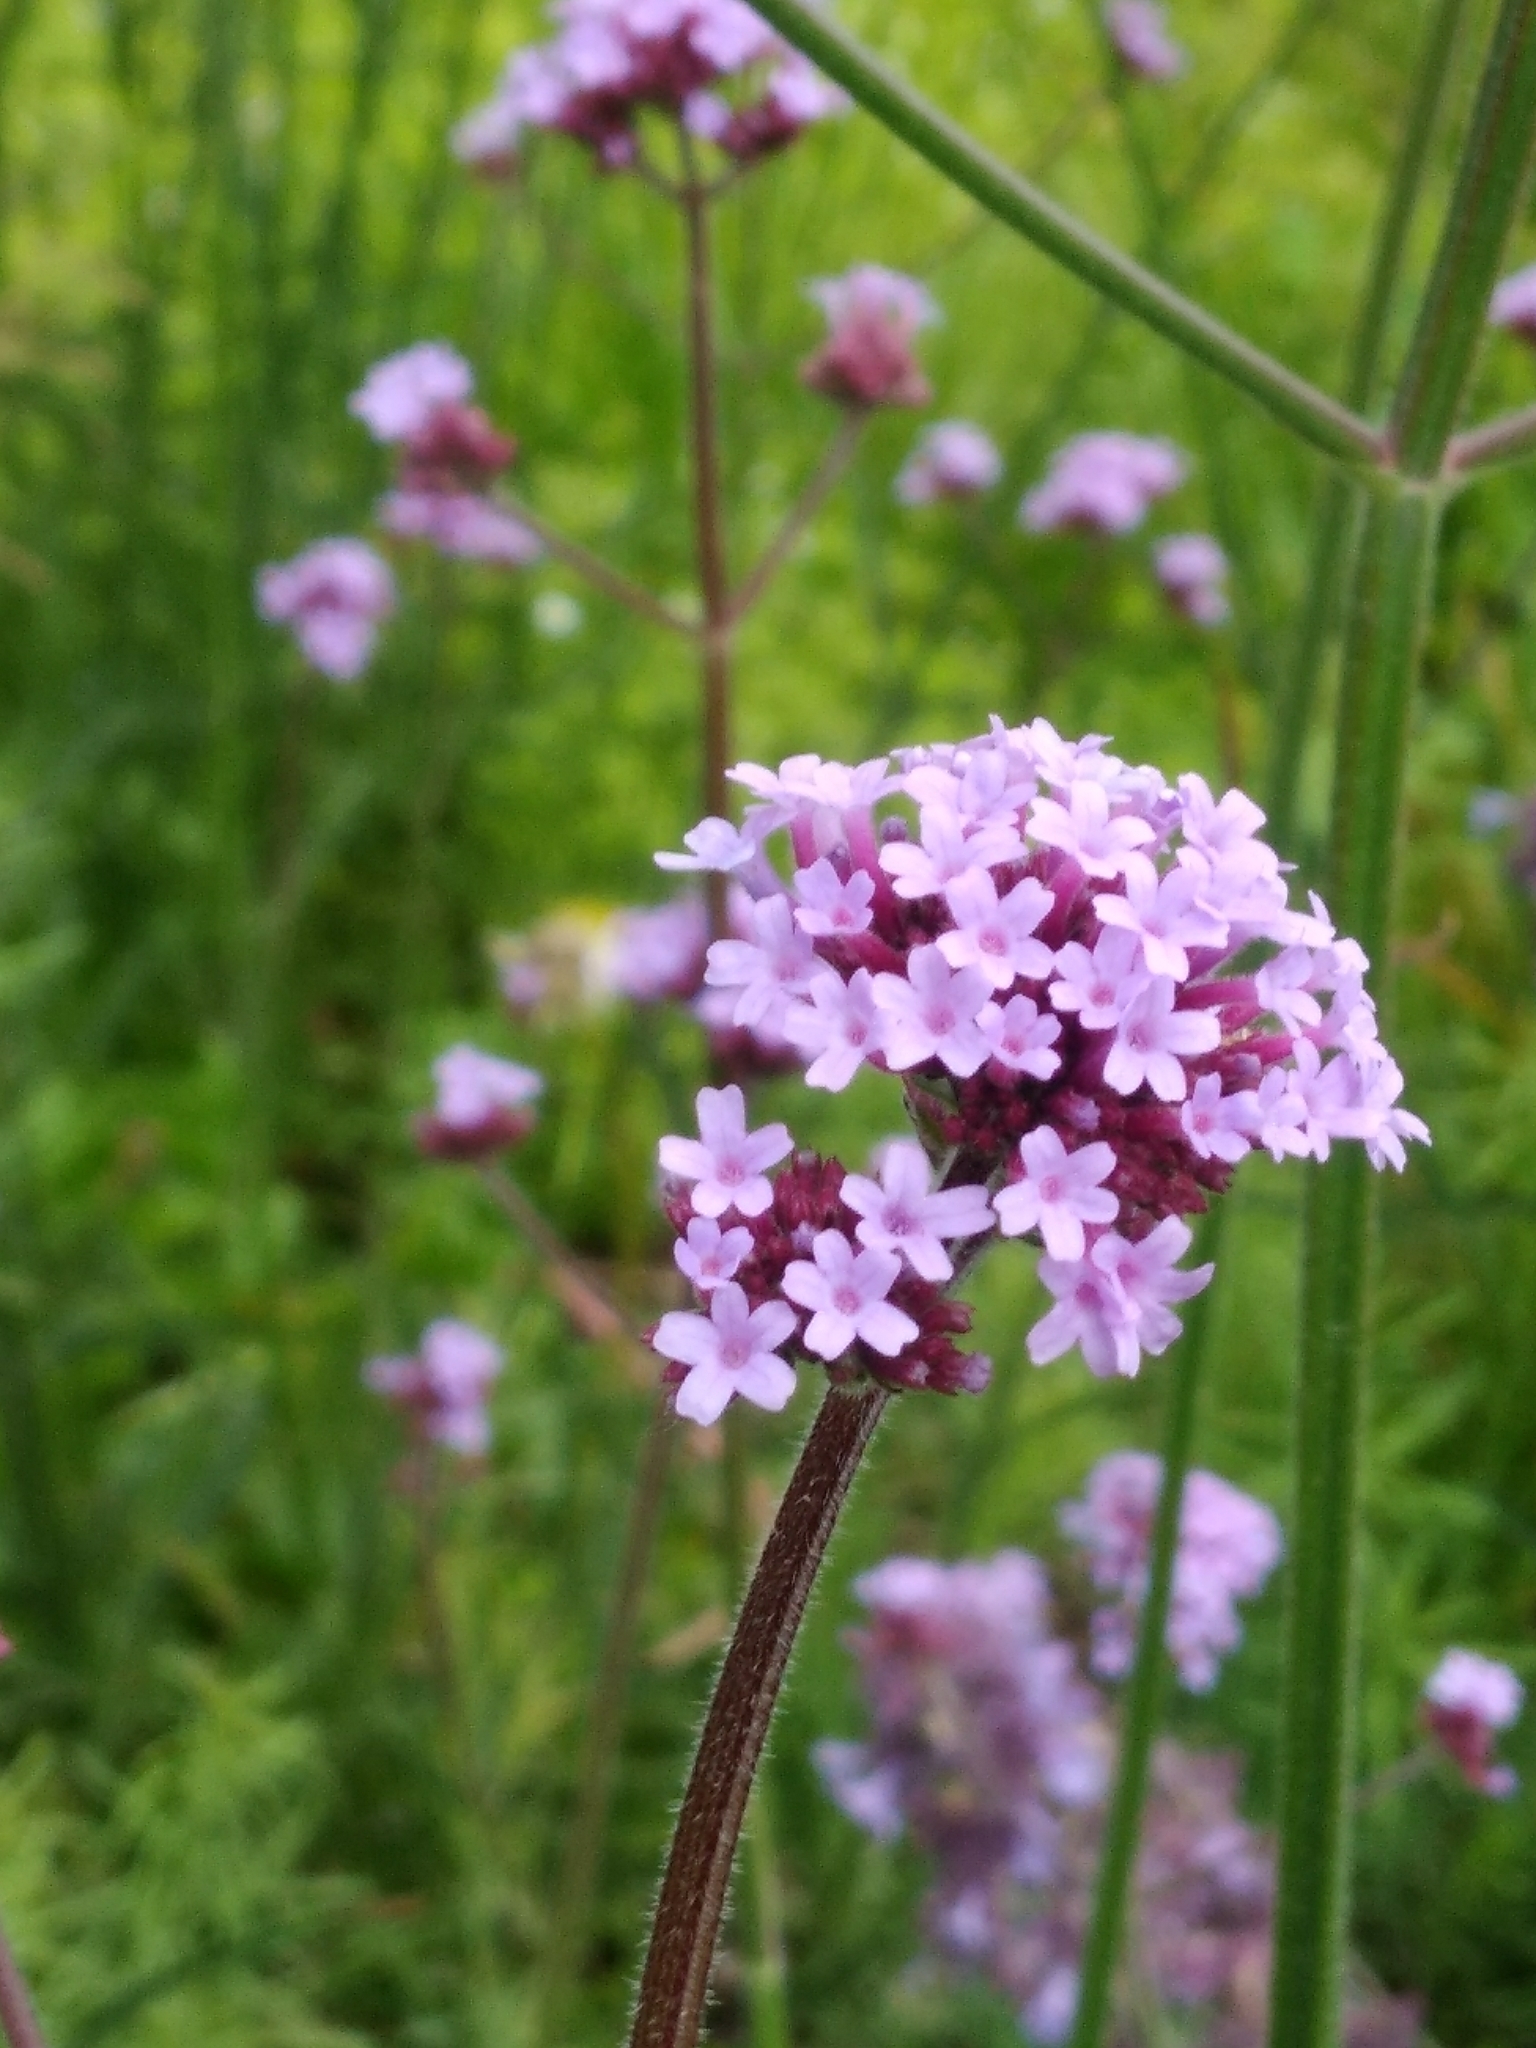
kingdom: Plantae
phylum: Tracheophyta
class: Magnoliopsida
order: Lamiales
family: Verbenaceae
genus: Verbena
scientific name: Verbena bonariensis
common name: Purpletop vervain
